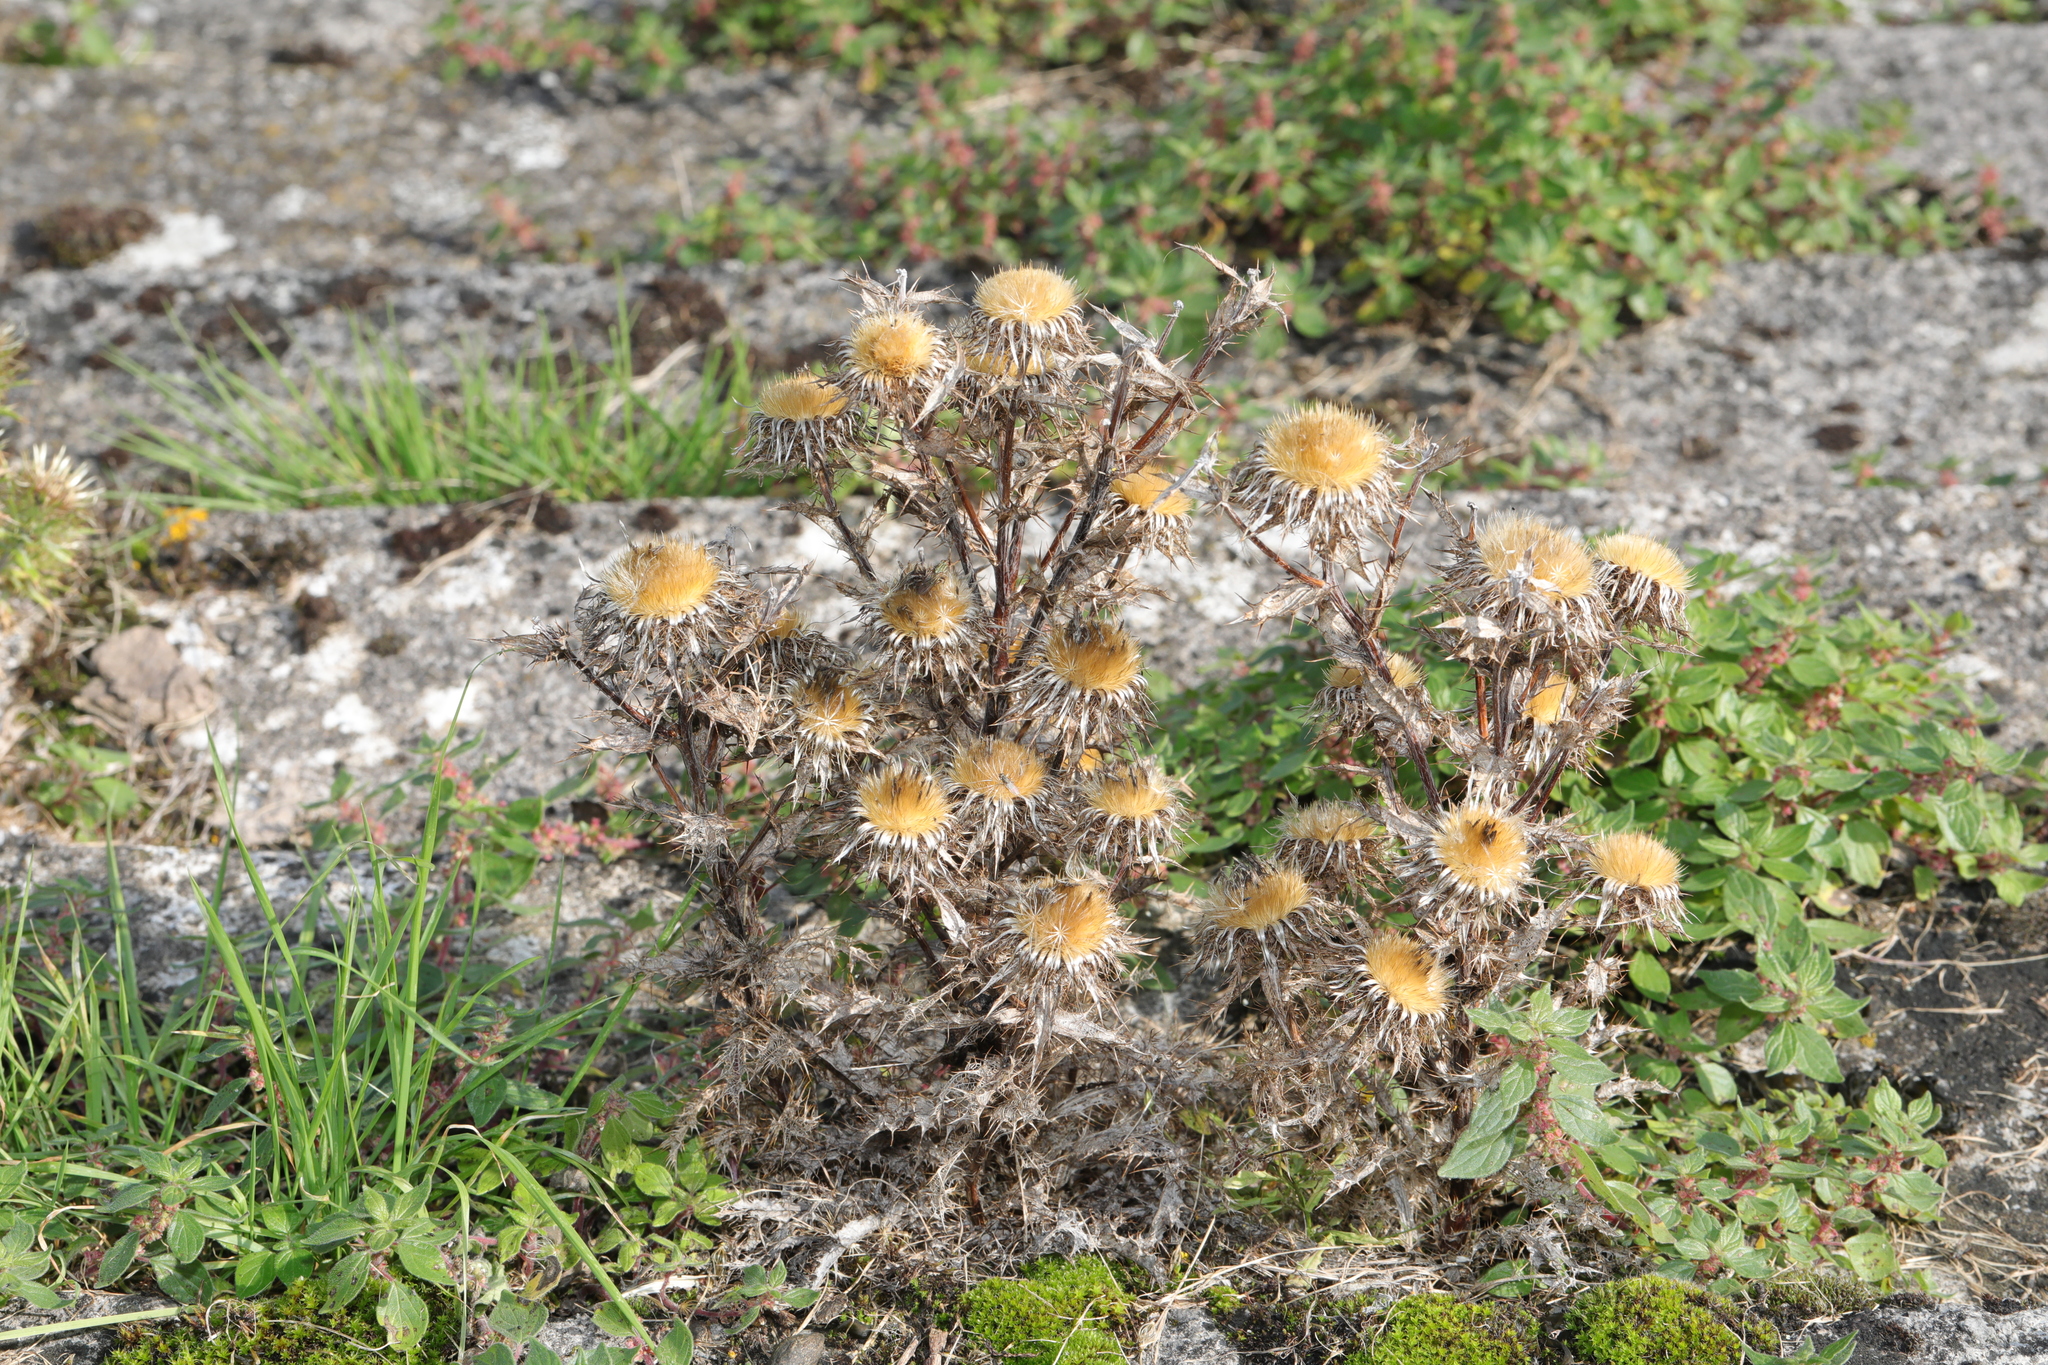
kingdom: Plantae
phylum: Tracheophyta
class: Magnoliopsida
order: Asterales
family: Asteraceae
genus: Carlina
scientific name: Carlina vulgaris
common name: Carline thistle
